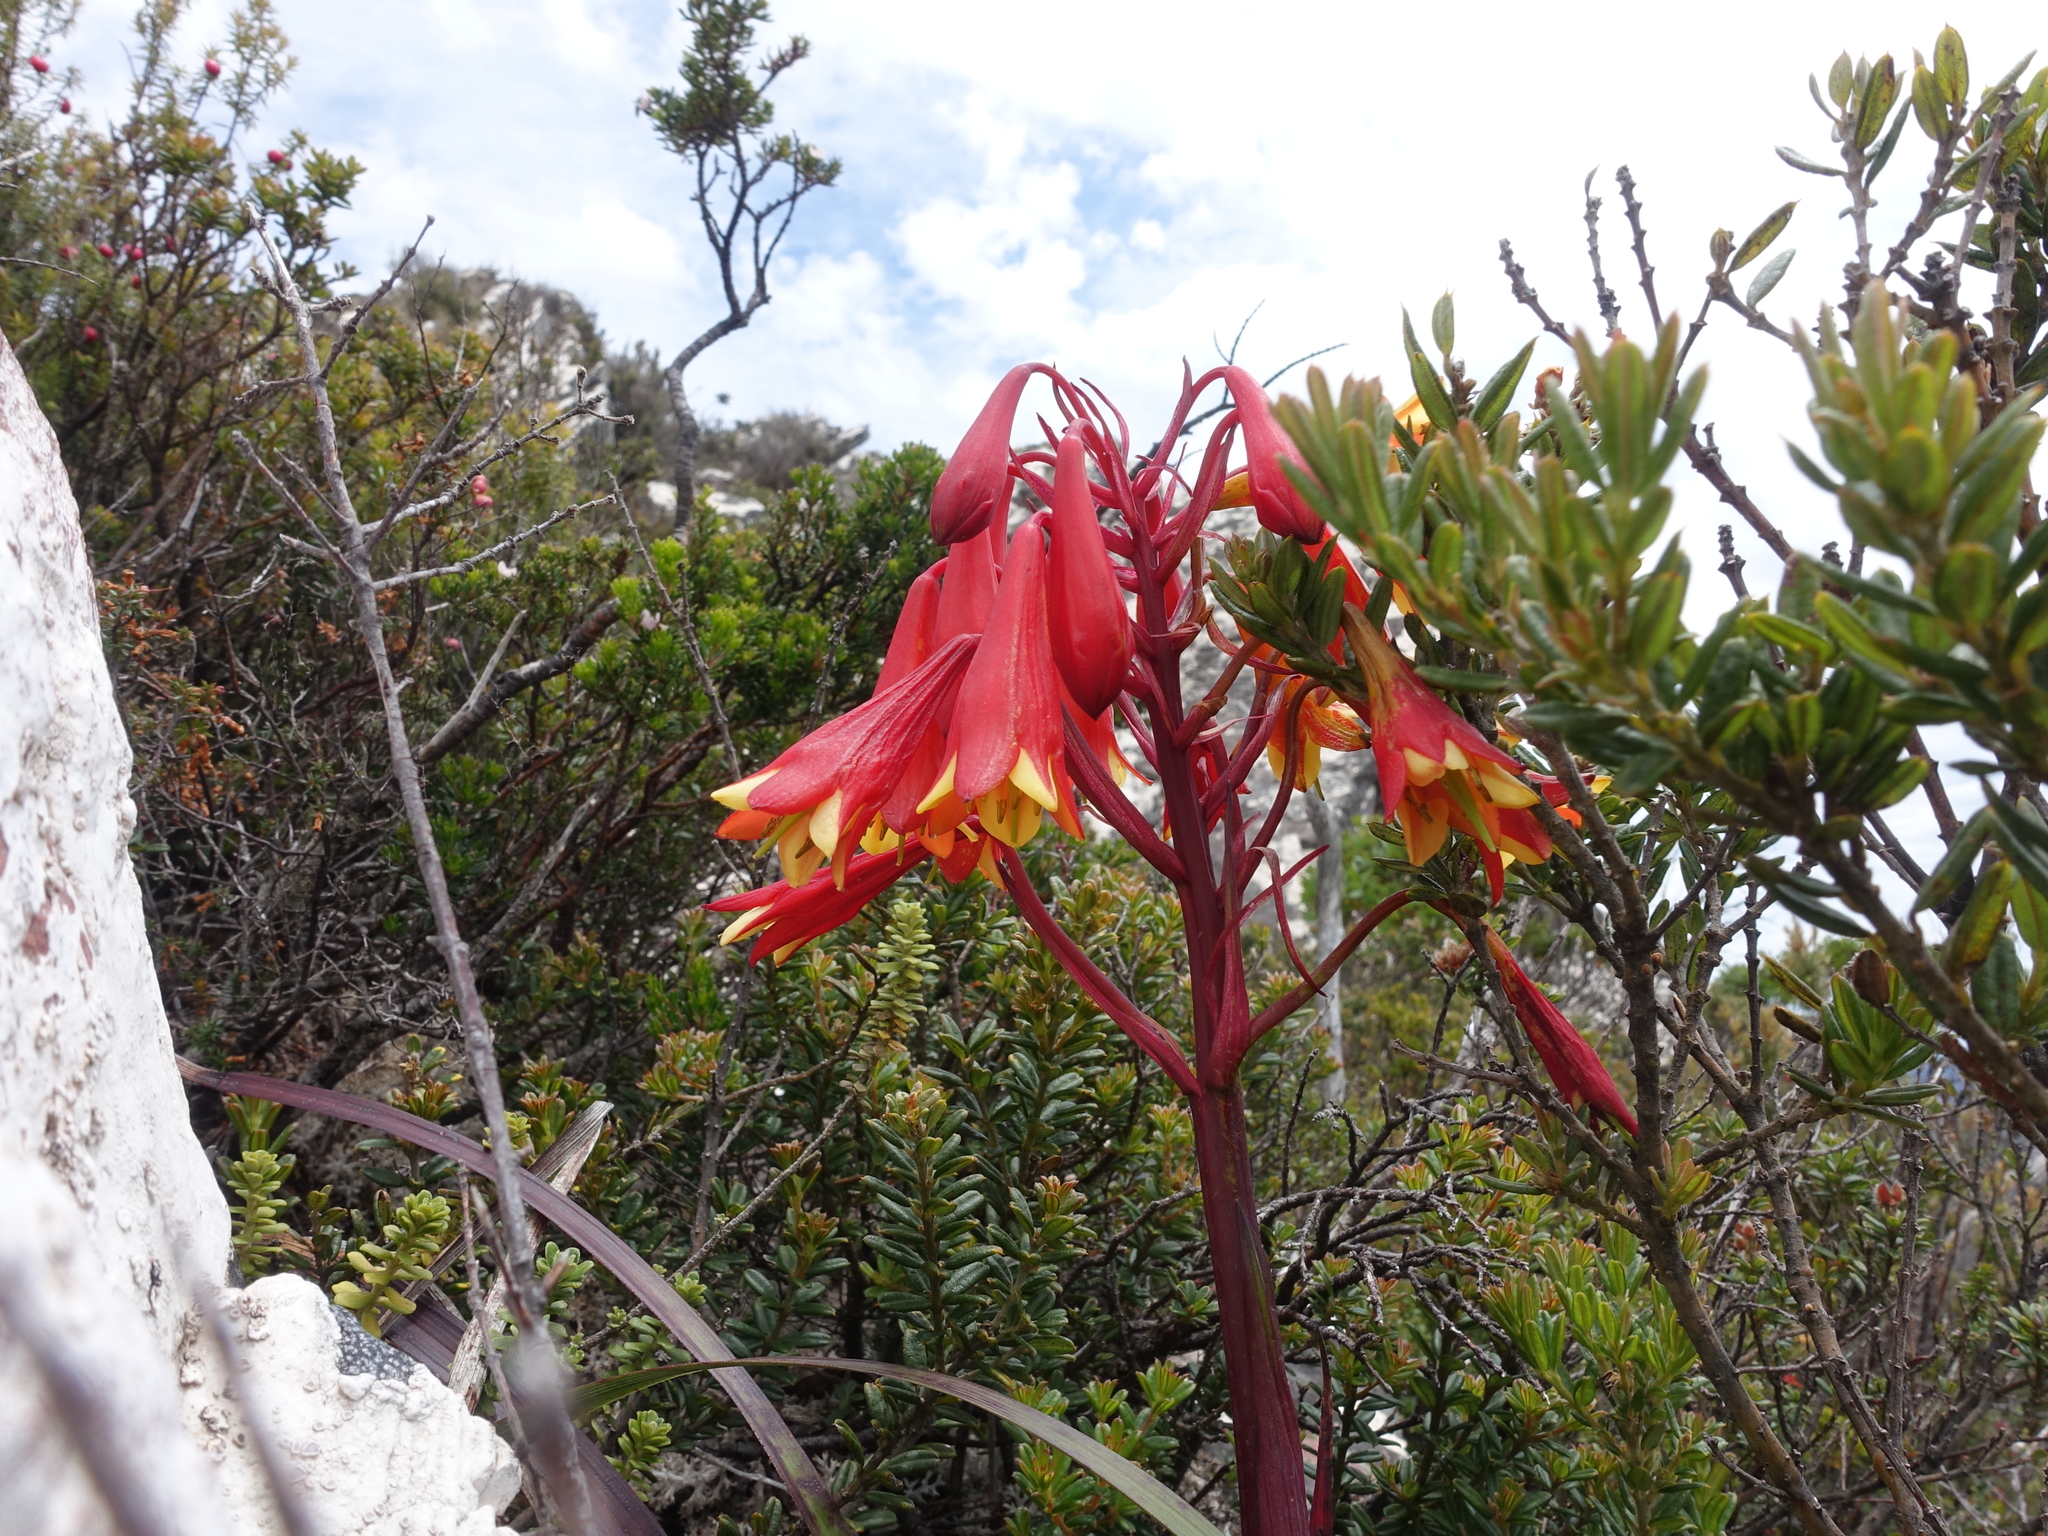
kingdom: Plantae
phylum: Tracheophyta
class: Liliopsida
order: Asparagales
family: Blandfordiaceae
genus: Blandfordia
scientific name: Blandfordia punicea
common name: Tasmanian christmas-bell
